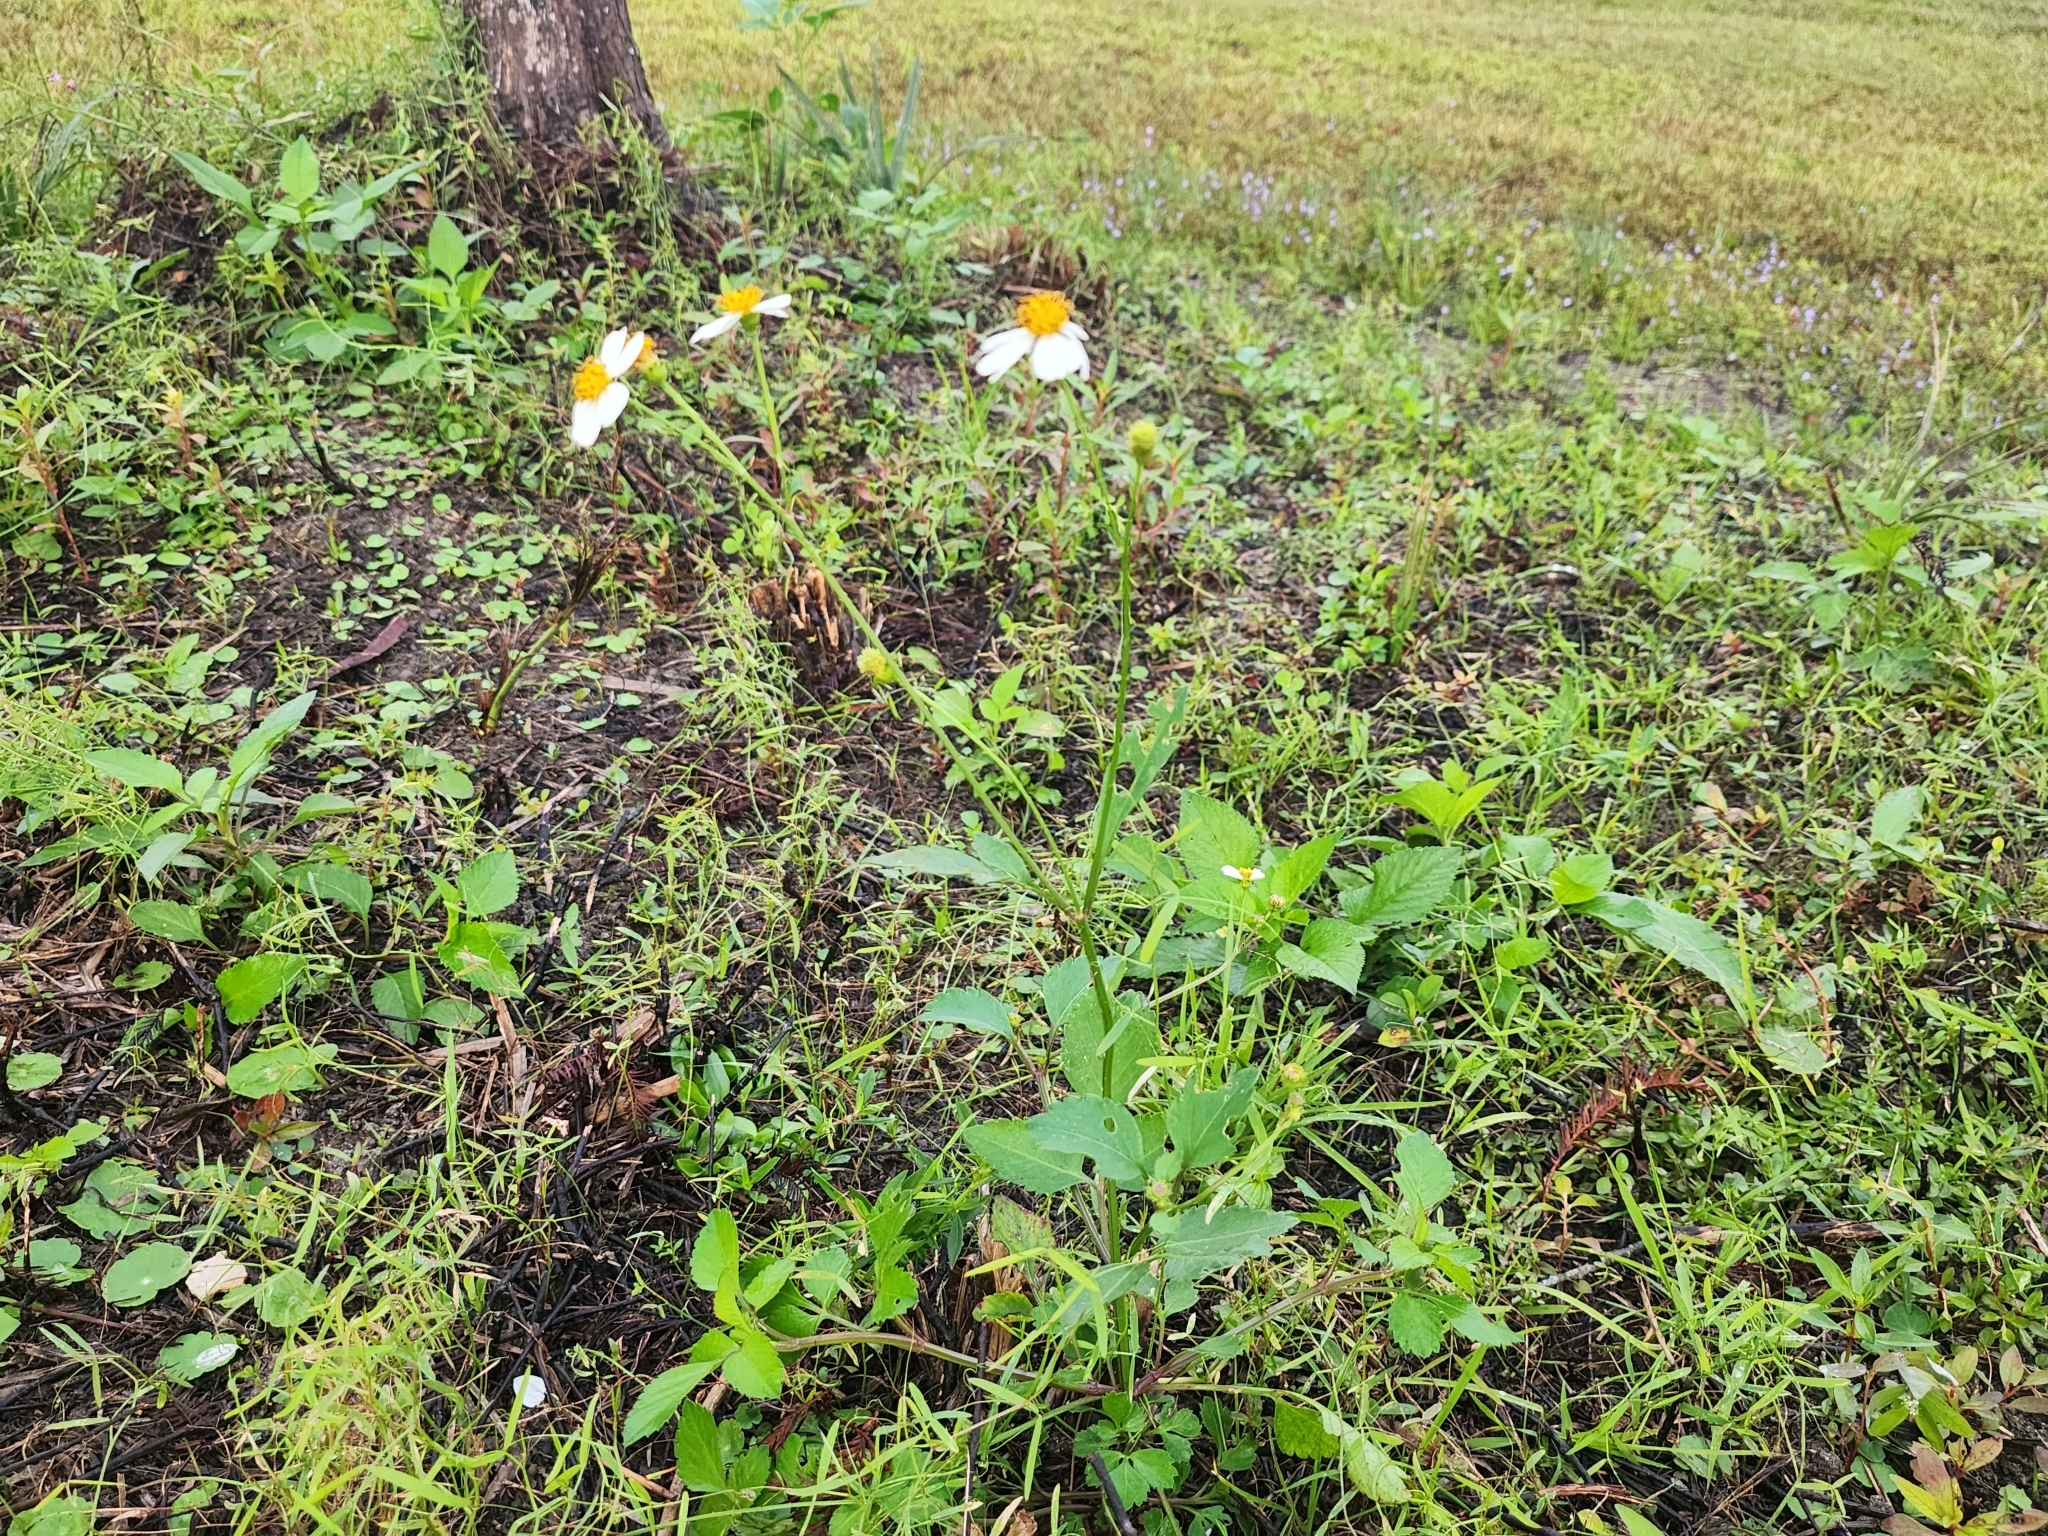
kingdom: Plantae
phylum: Tracheophyta
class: Magnoliopsida
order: Asterales
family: Asteraceae
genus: Bidens
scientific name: Bidens alba
